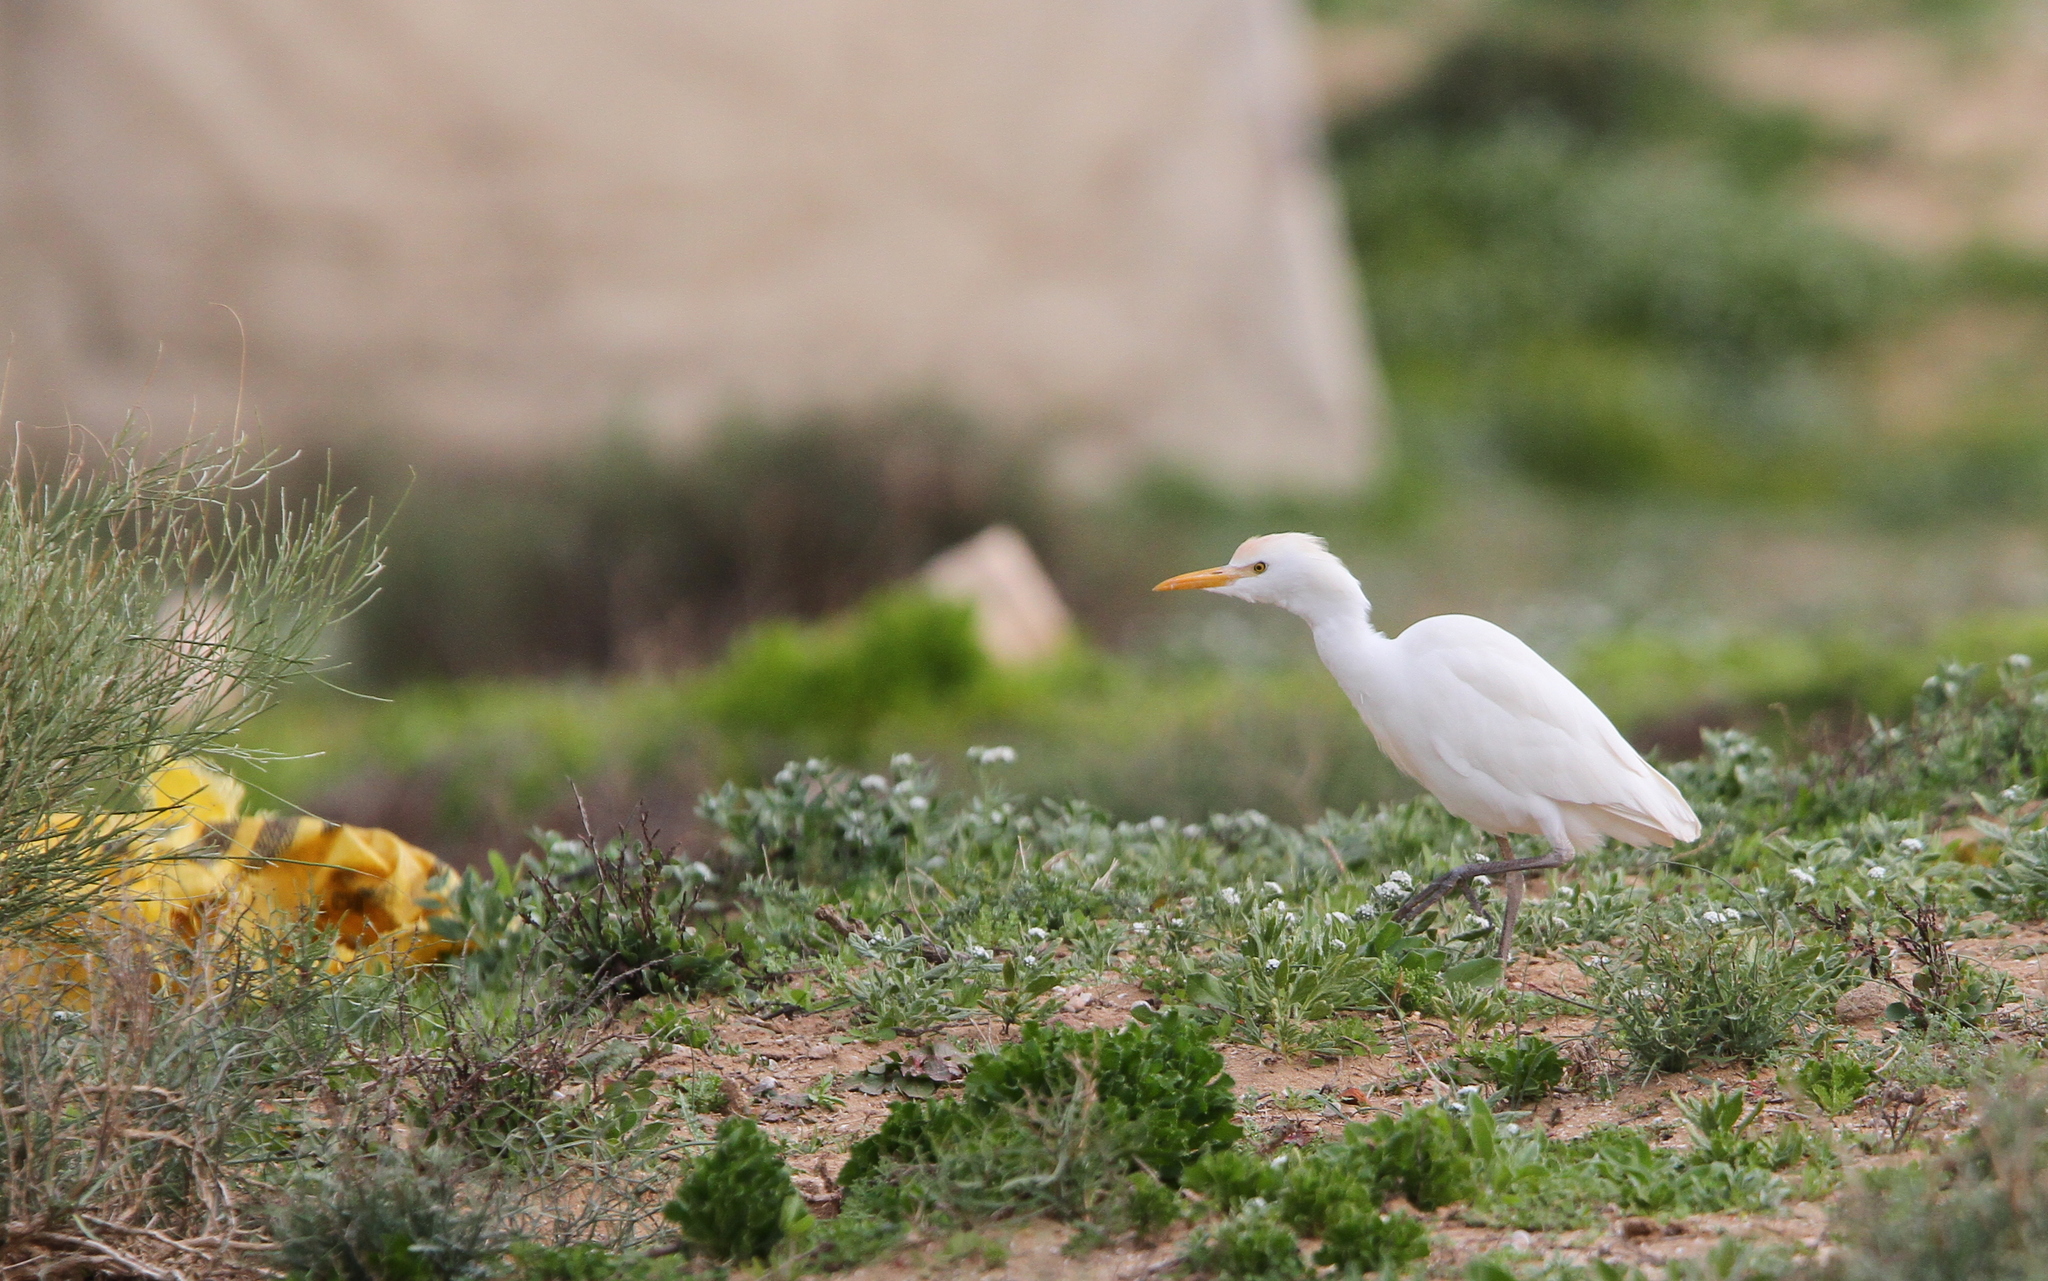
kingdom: Animalia
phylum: Chordata
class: Aves
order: Pelecaniformes
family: Ardeidae
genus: Bubulcus
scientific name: Bubulcus ibis
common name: Cattle egret
